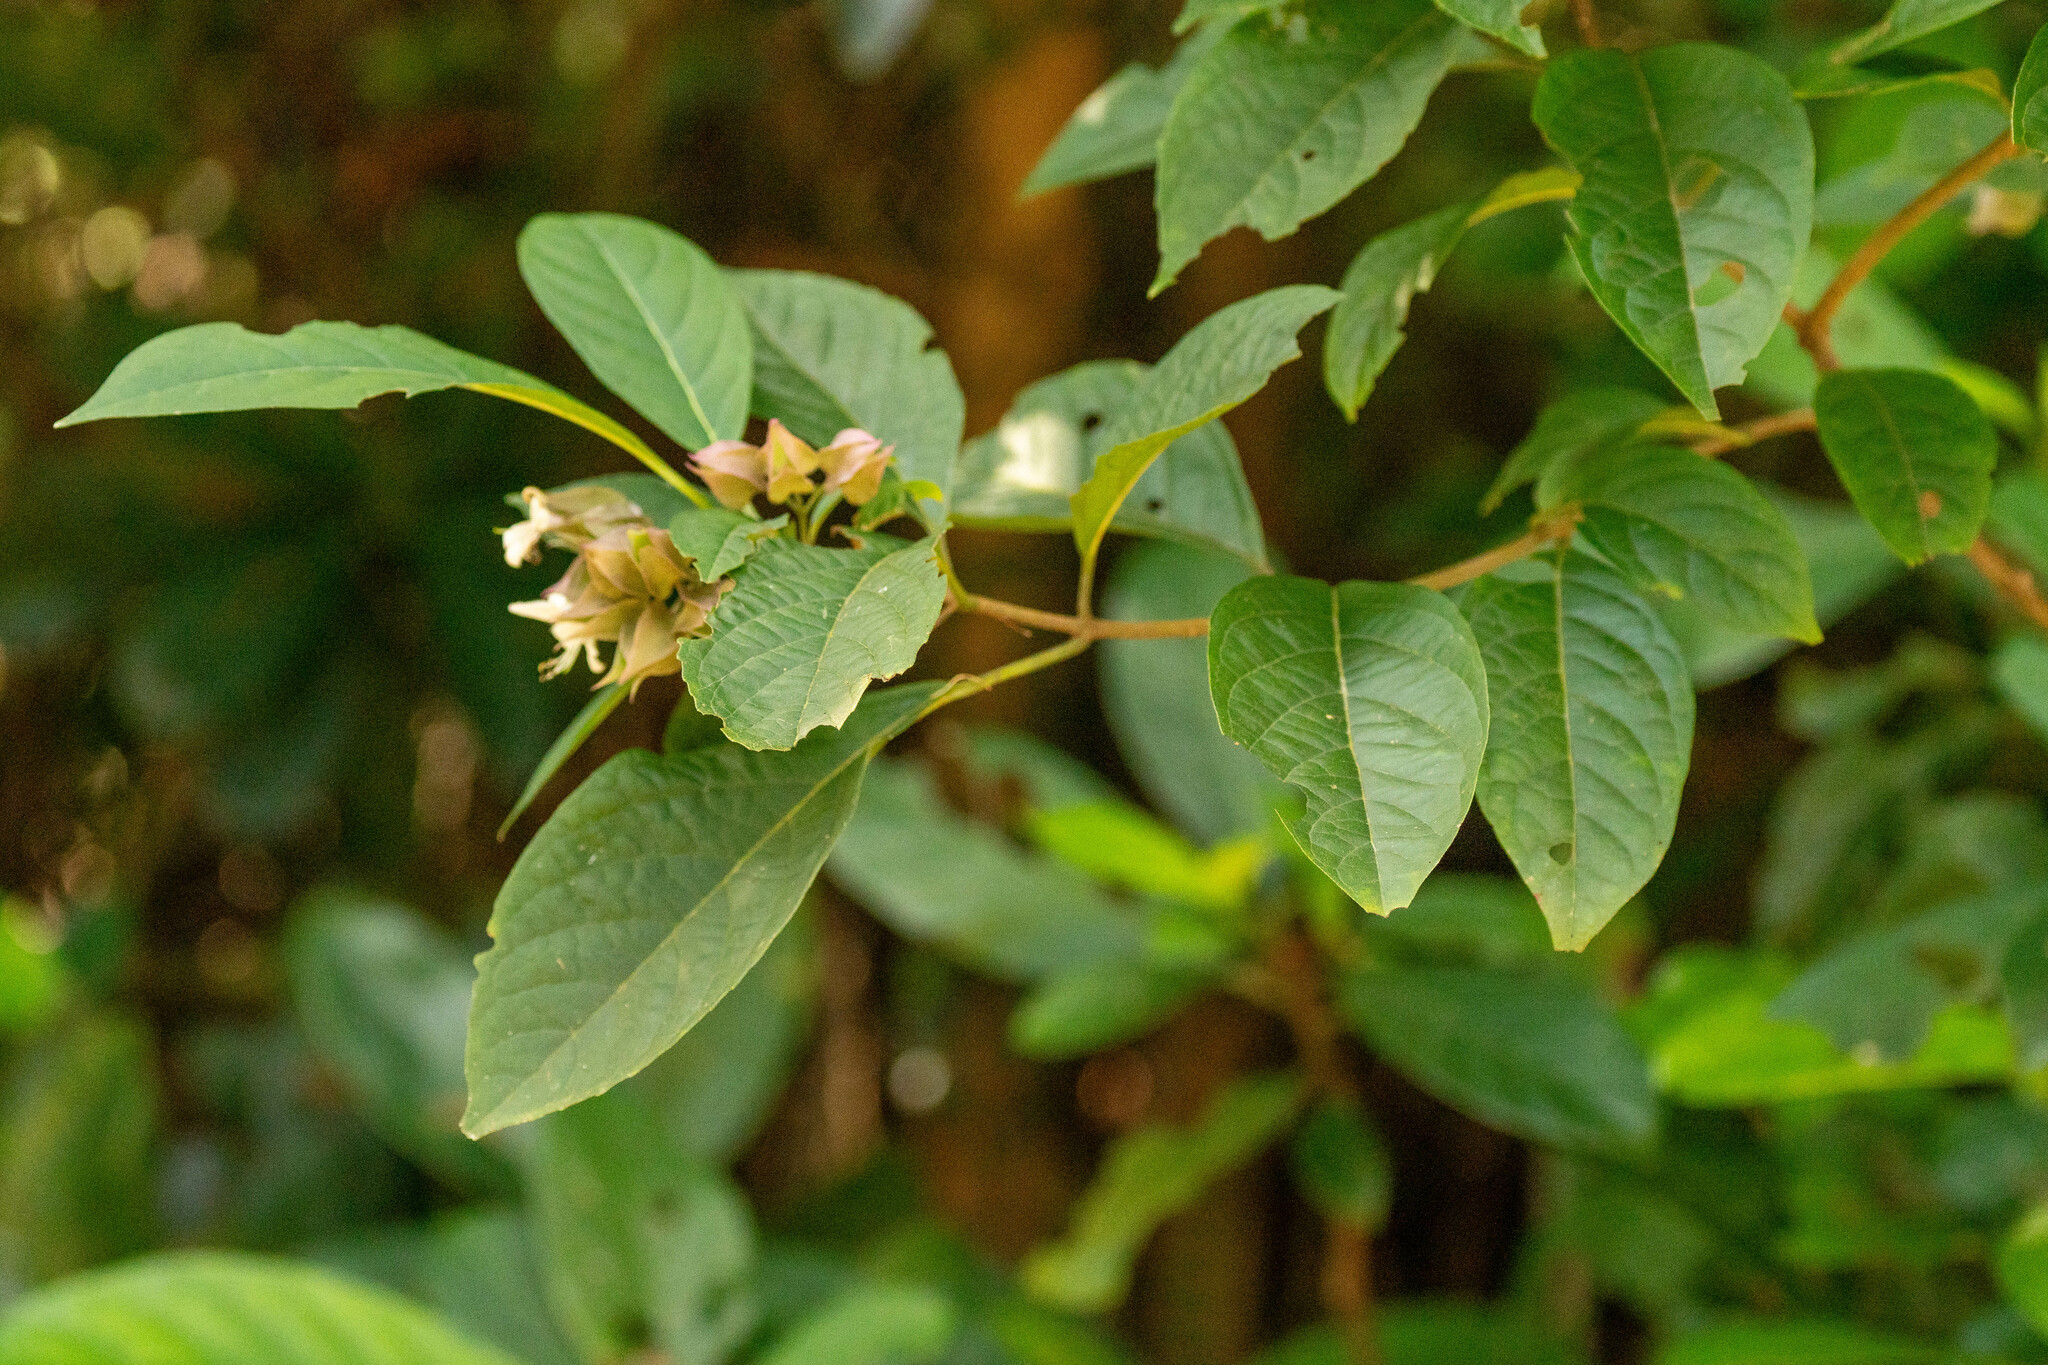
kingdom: Plantae
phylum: Tracheophyta
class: Magnoliopsida
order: Lamiales
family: Lamiaceae
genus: Clerodendrum
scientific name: Clerodendrum fortunatum
